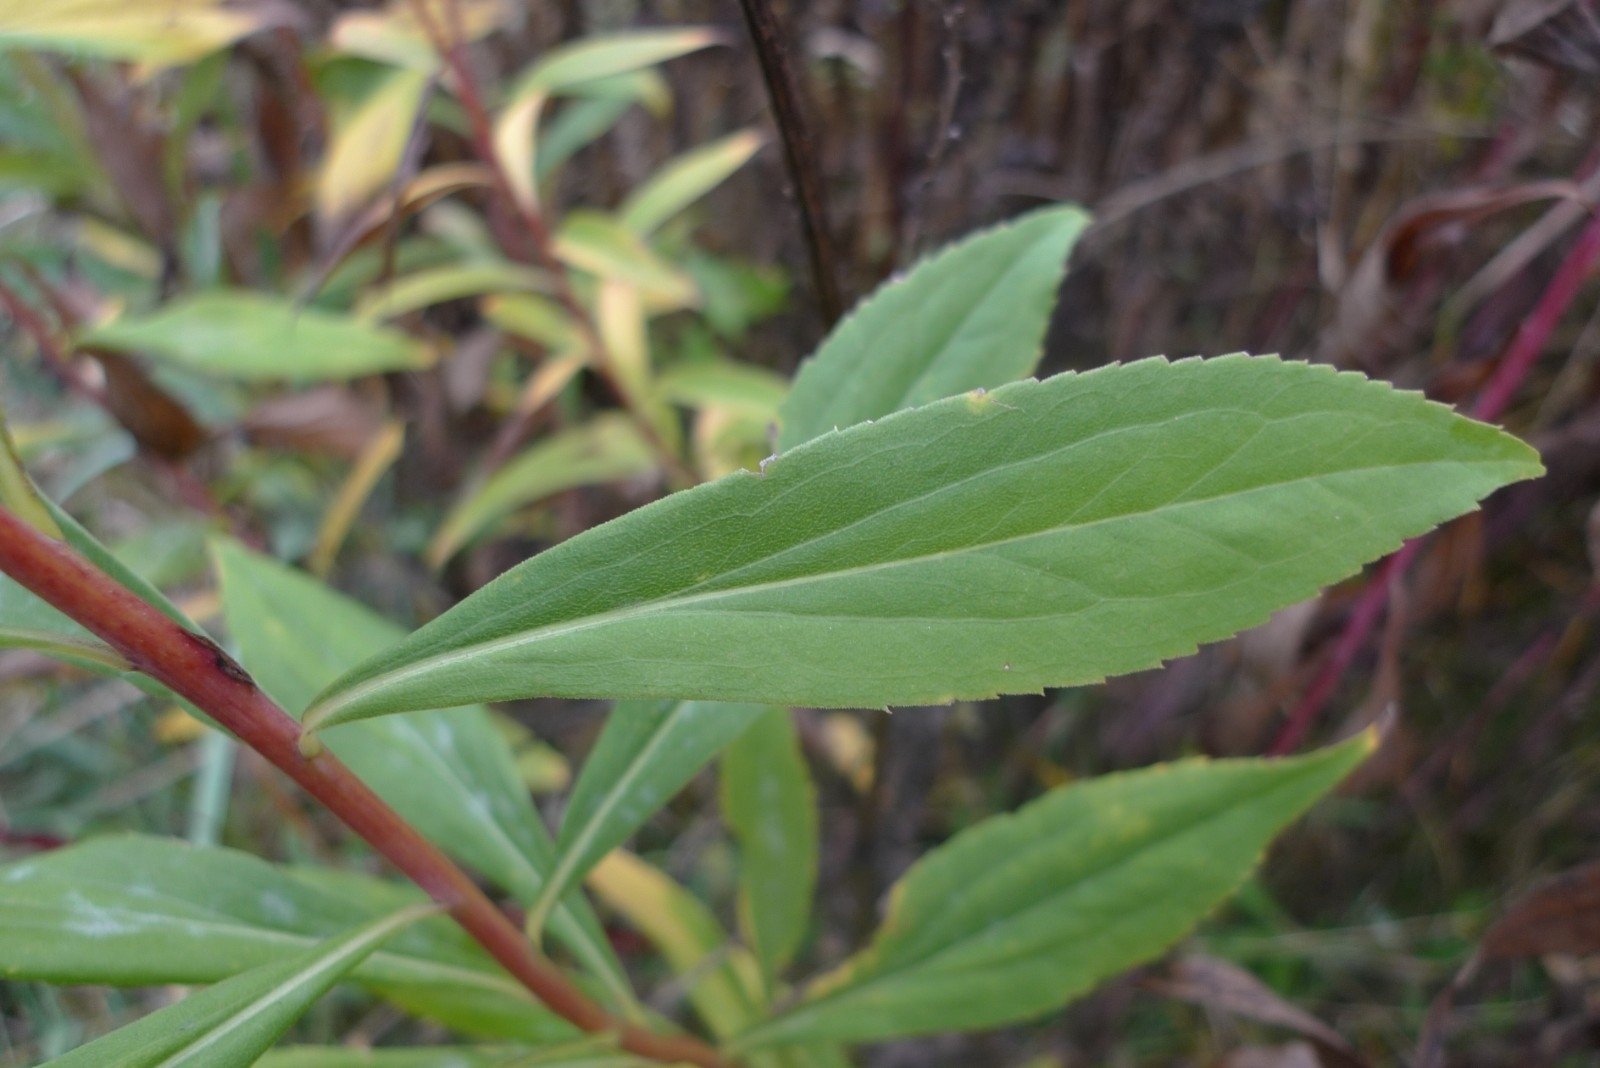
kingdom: Plantae
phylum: Tracheophyta
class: Magnoliopsida
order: Asterales
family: Asteraceae
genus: Solidago
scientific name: Solidago gigantea
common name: Giant goldenrod
